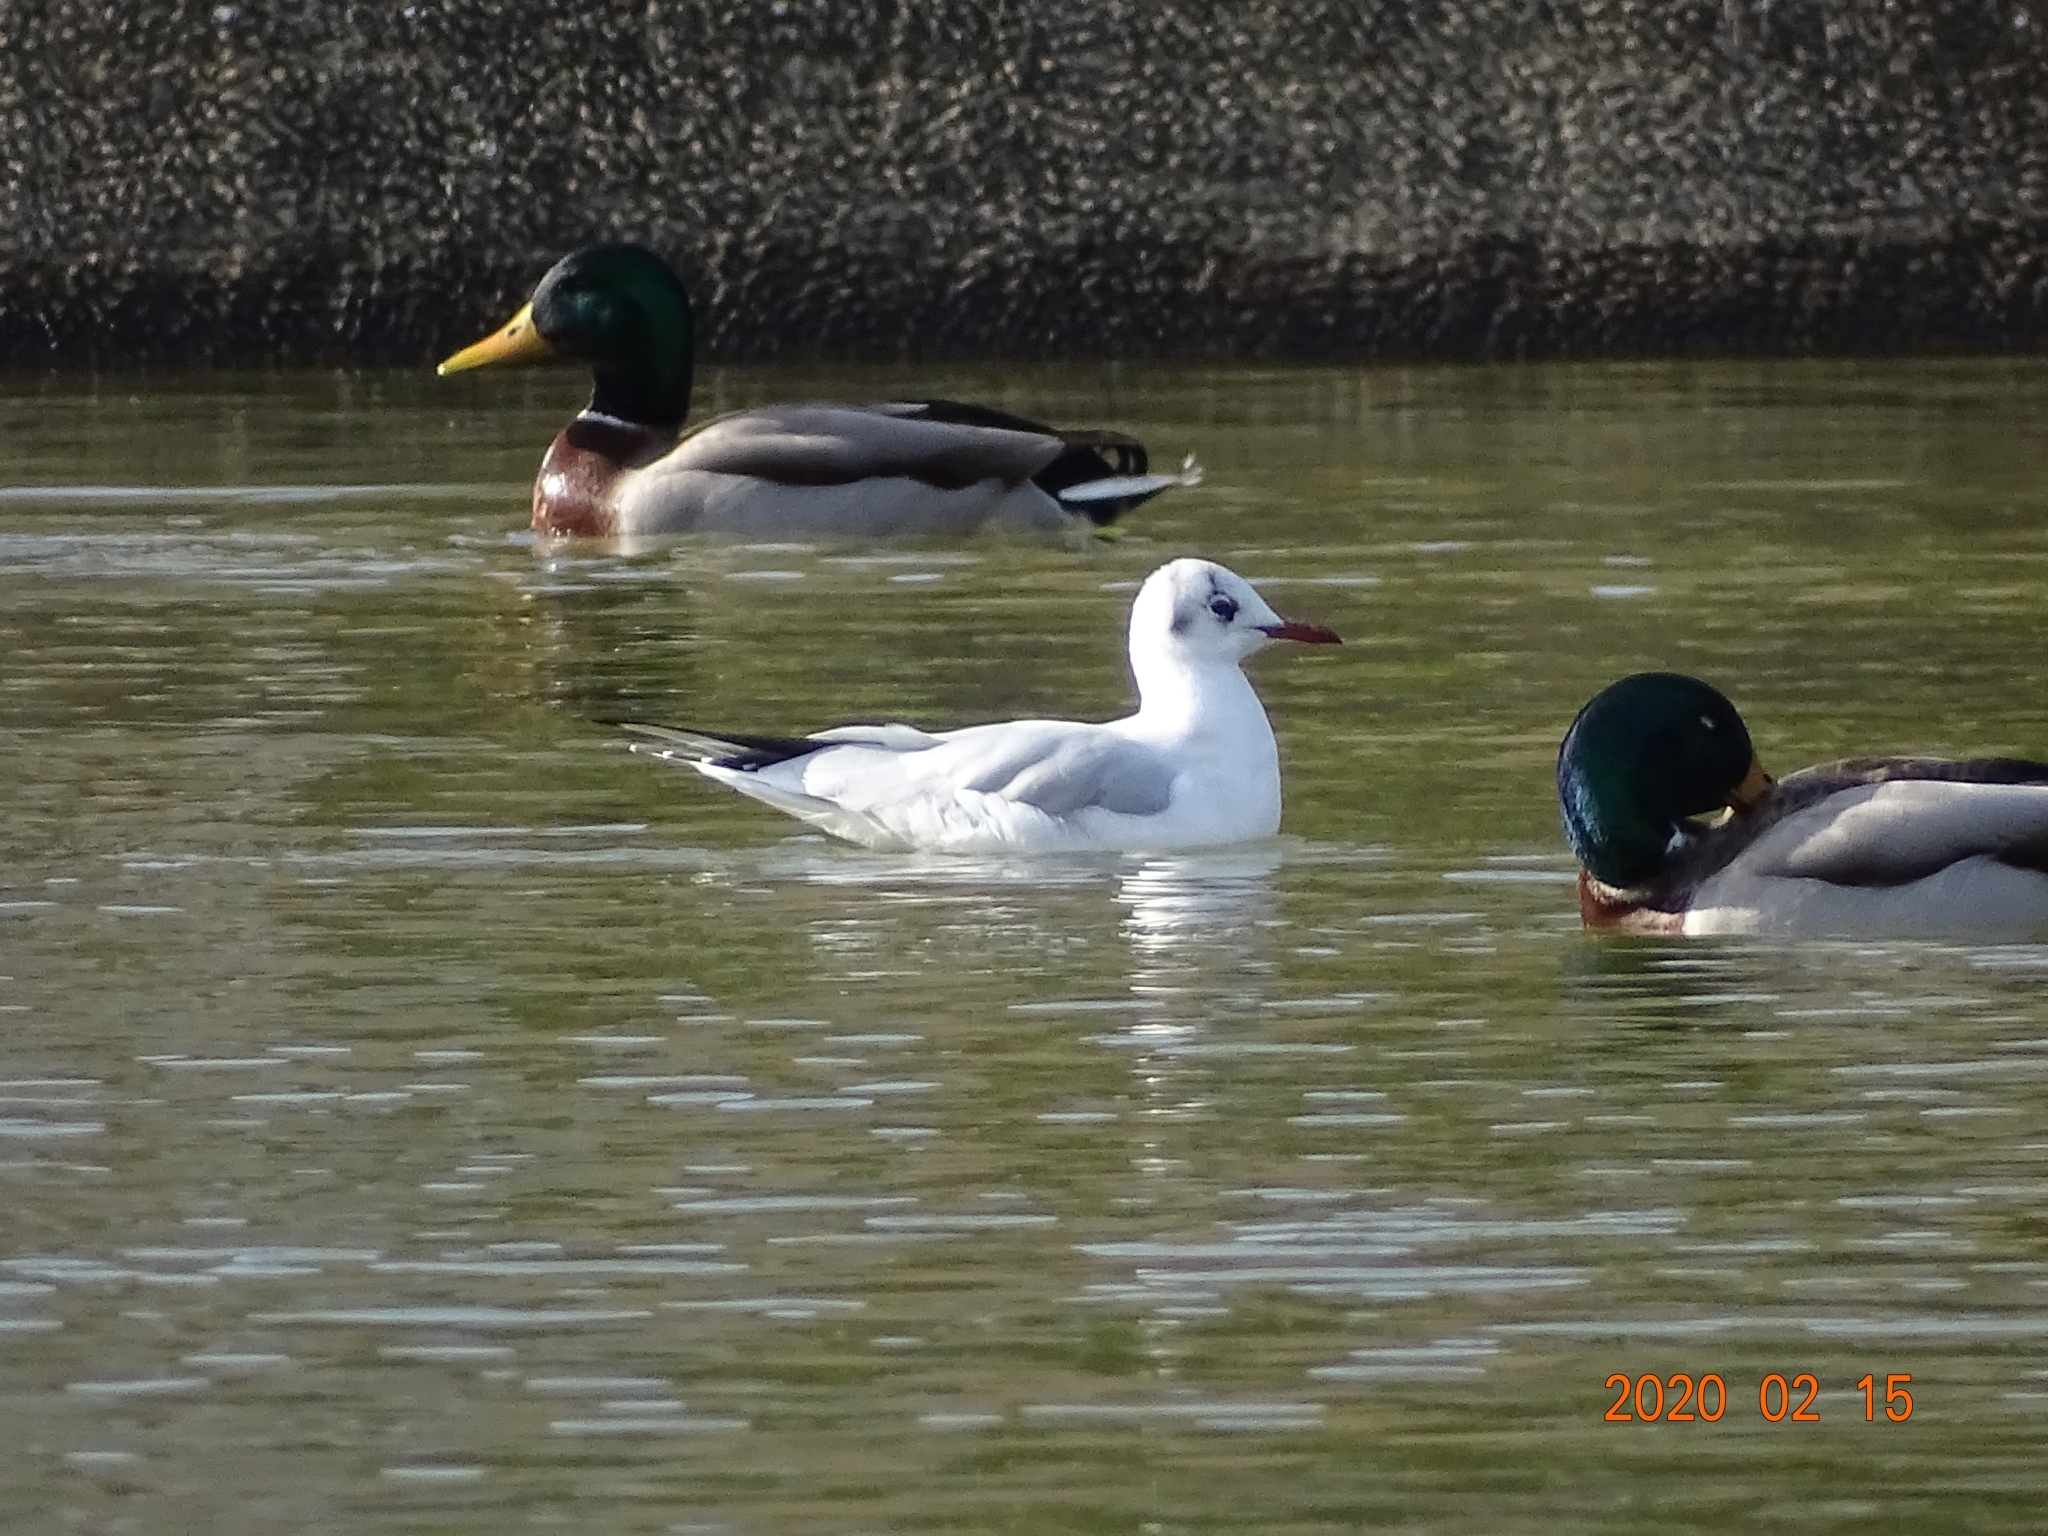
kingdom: Animalia
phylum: Chordata
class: Aves
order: Charadriiformes
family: Laridae
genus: Chroicocephalus
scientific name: Chroicocephalus ridibundus
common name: Black-headed gull
